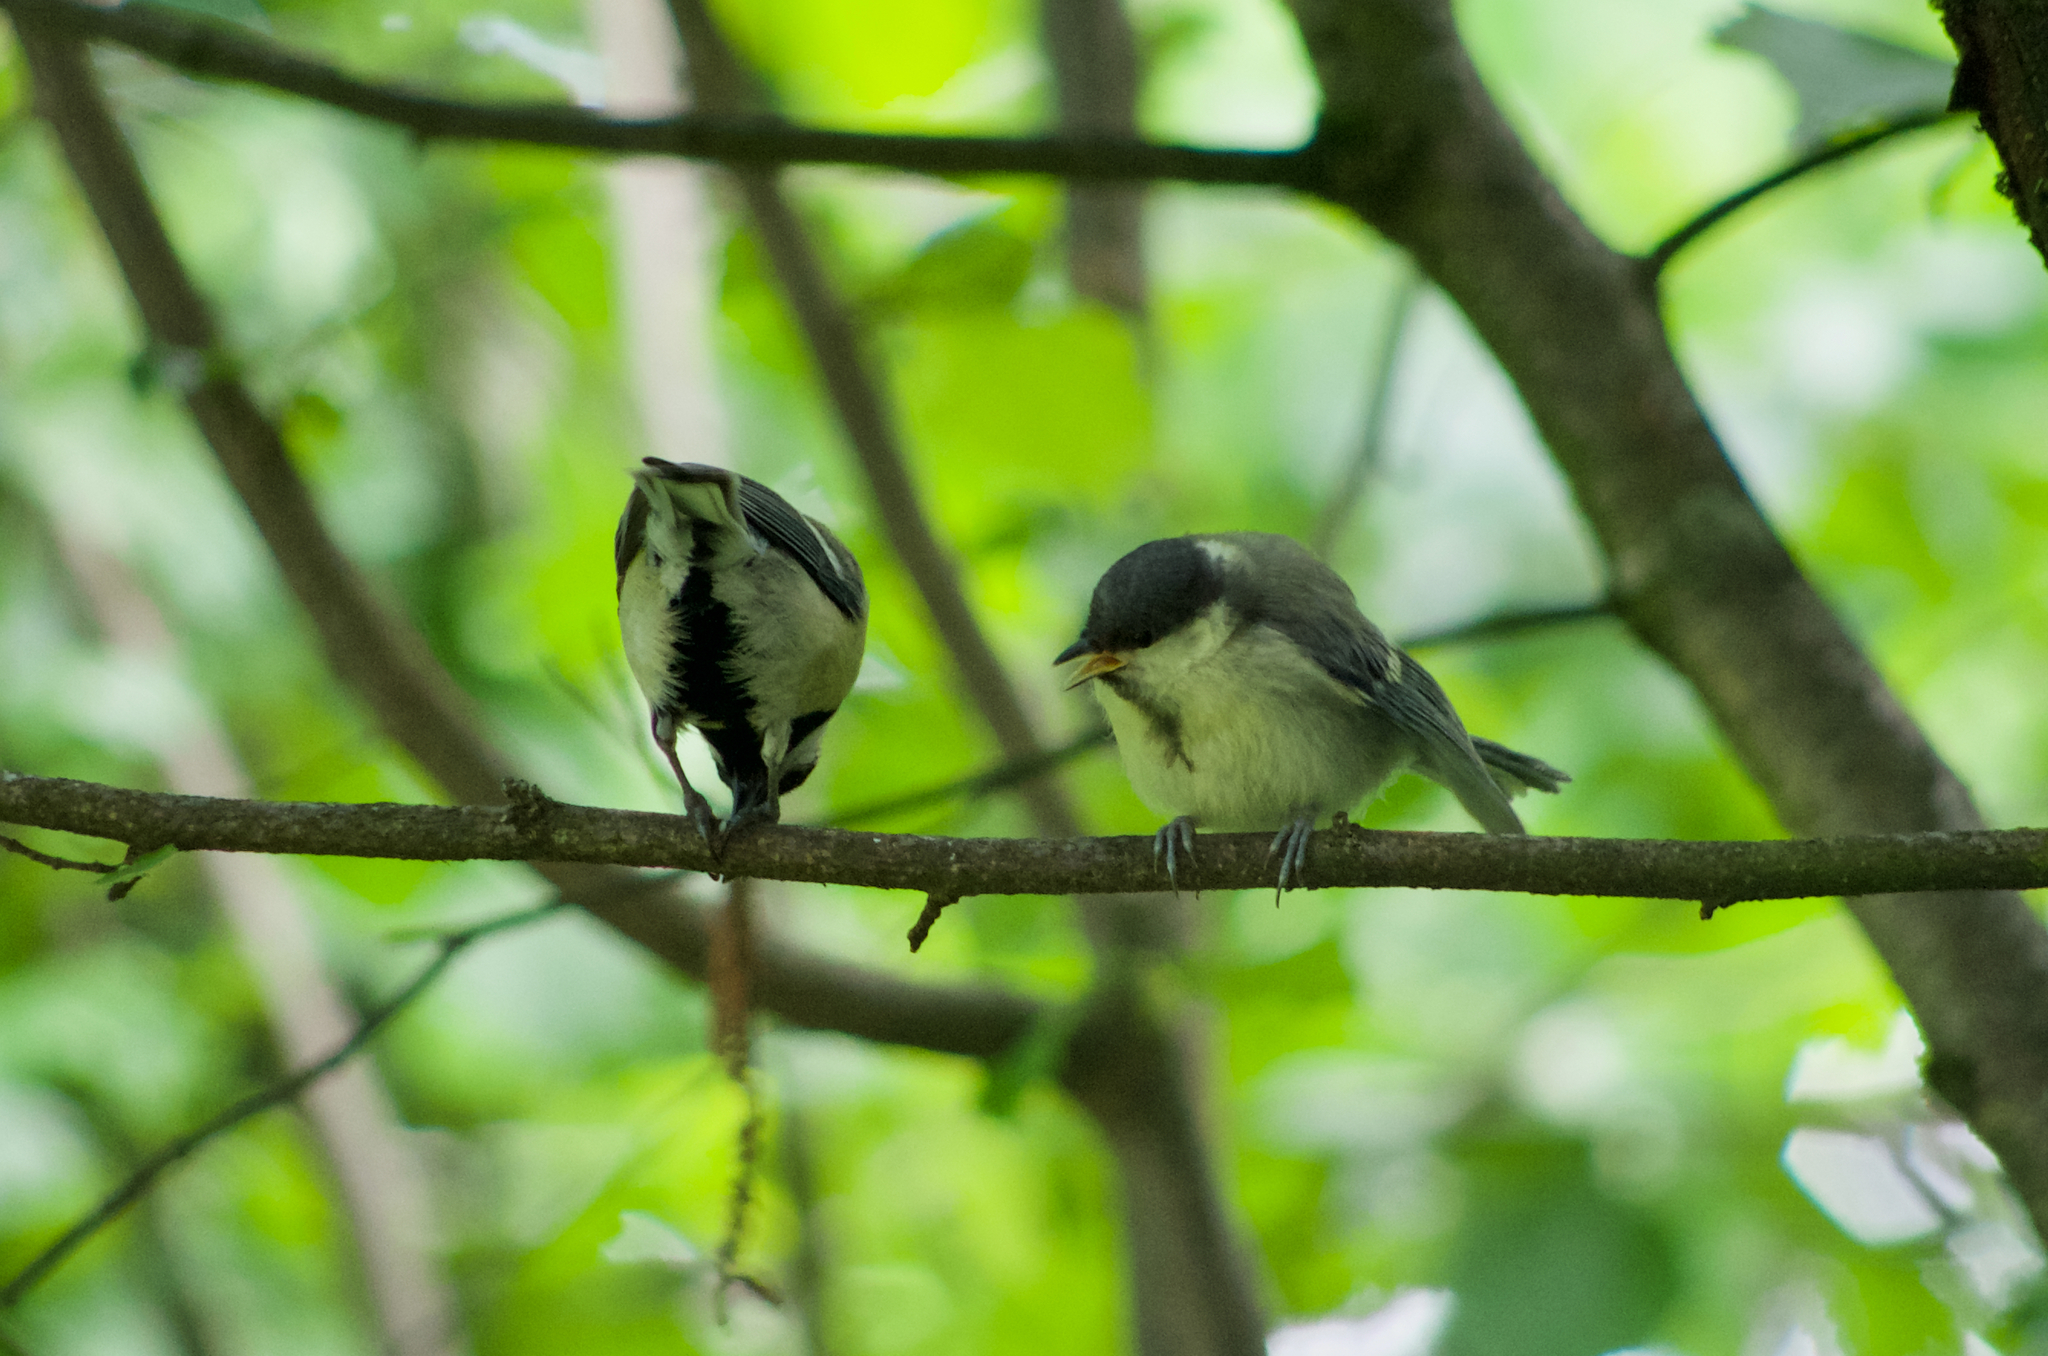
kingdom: Animalia
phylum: Chordata
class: Aves
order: Passeriformes
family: Paridae
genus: Parus
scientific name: Parus major
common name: Great tit
